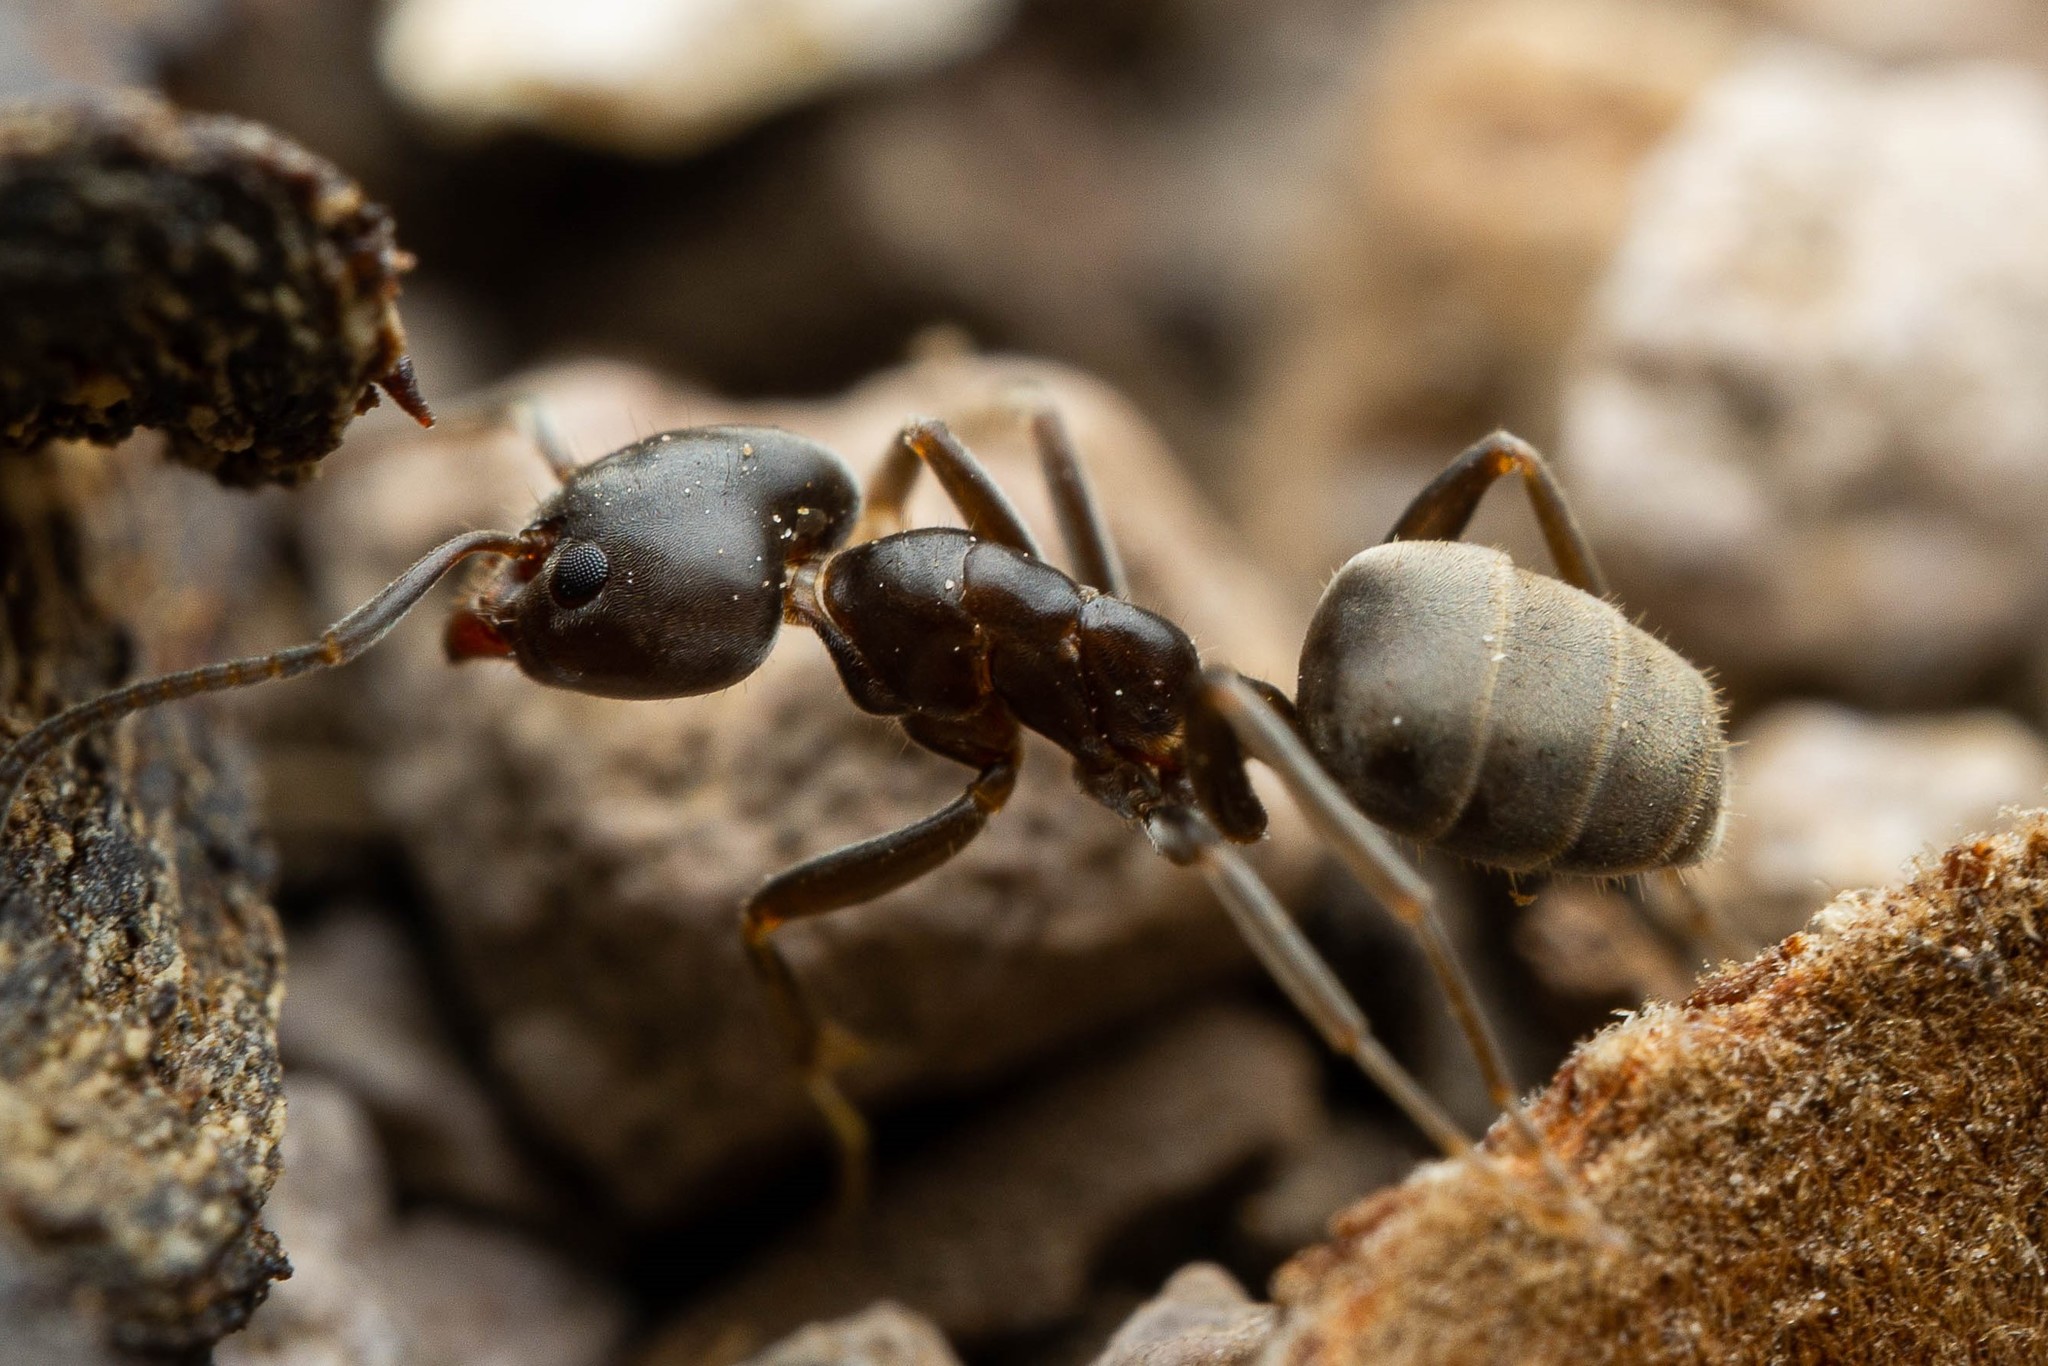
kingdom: Animalia
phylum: Arthropoda
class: Insecta
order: Hymenoptera
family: Formicidae
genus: Liometopum
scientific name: Liometopum luctuosum
